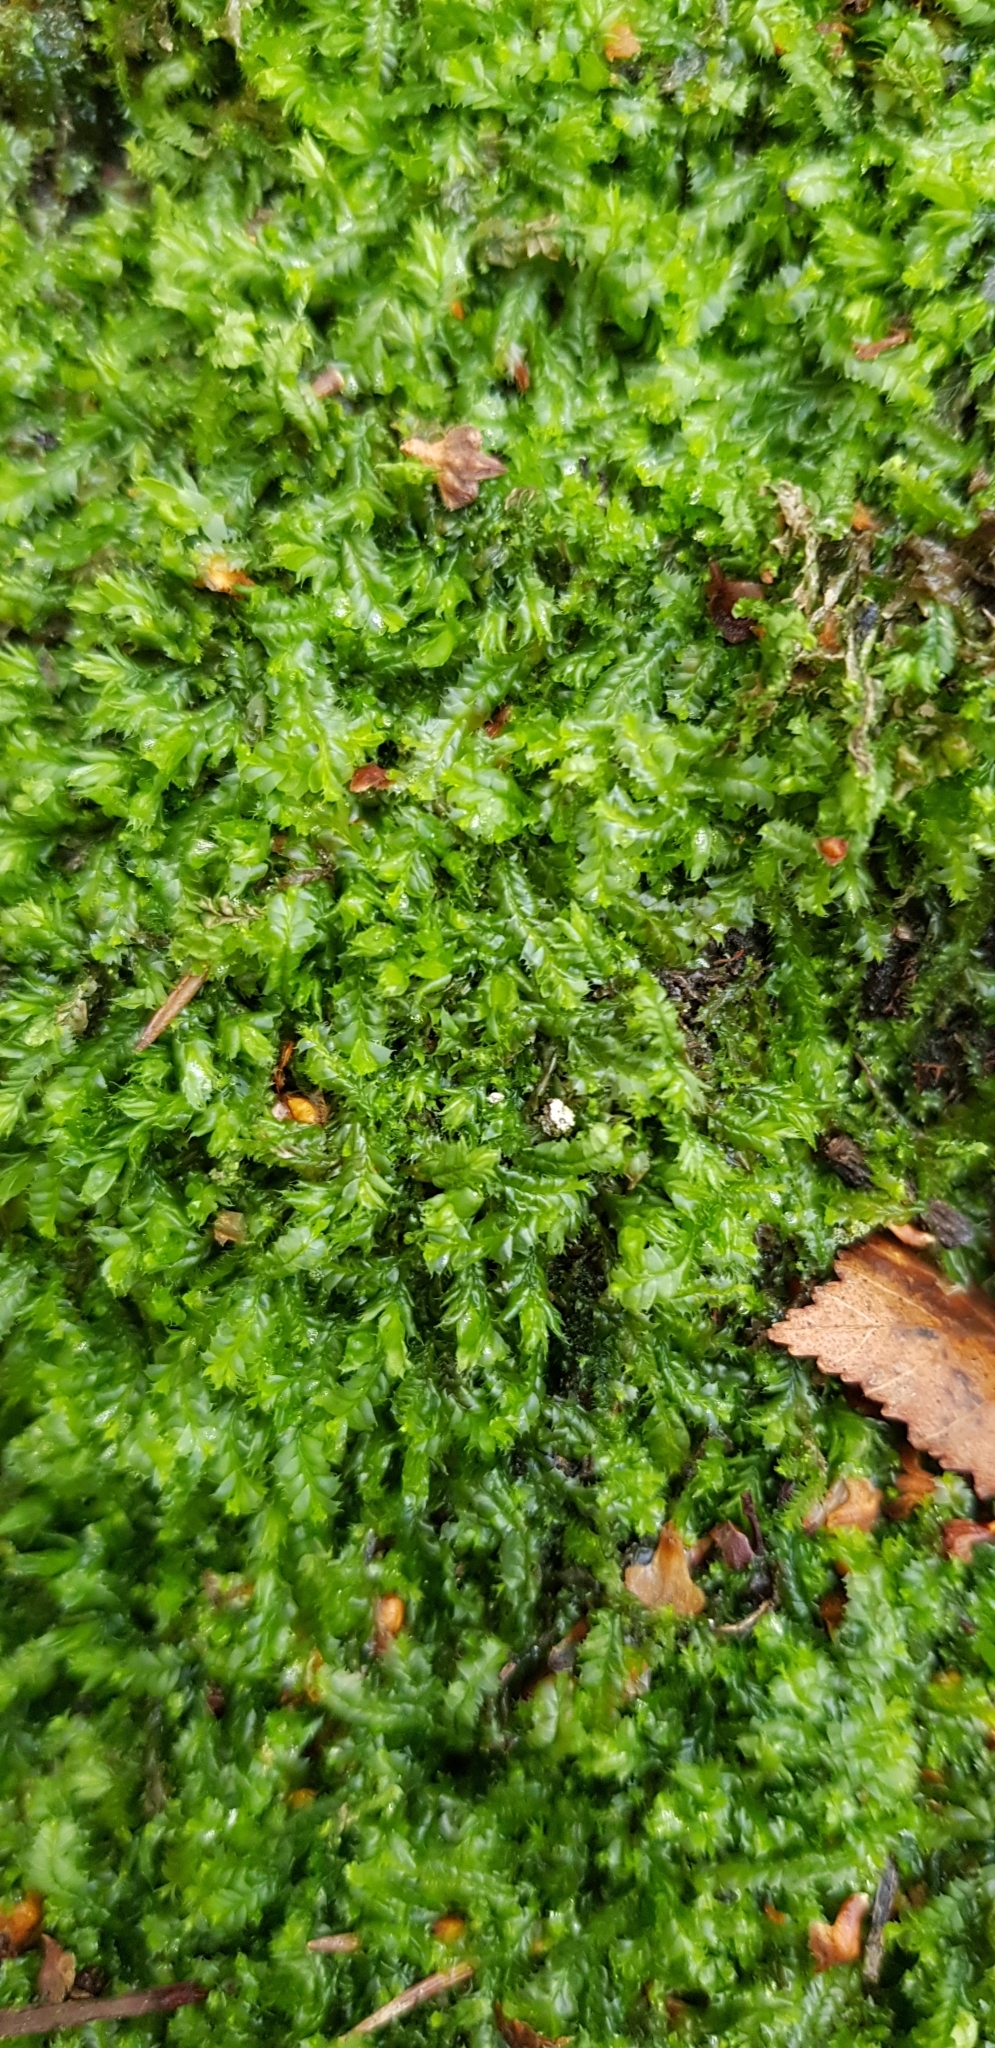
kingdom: Plantae
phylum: Marchantiophyta
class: Jungermanniopsida
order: Jungermanniales
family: Lophocoleaceae
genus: Lophocolea
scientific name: Lophocolea bidentata
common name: Bifid crestwort
